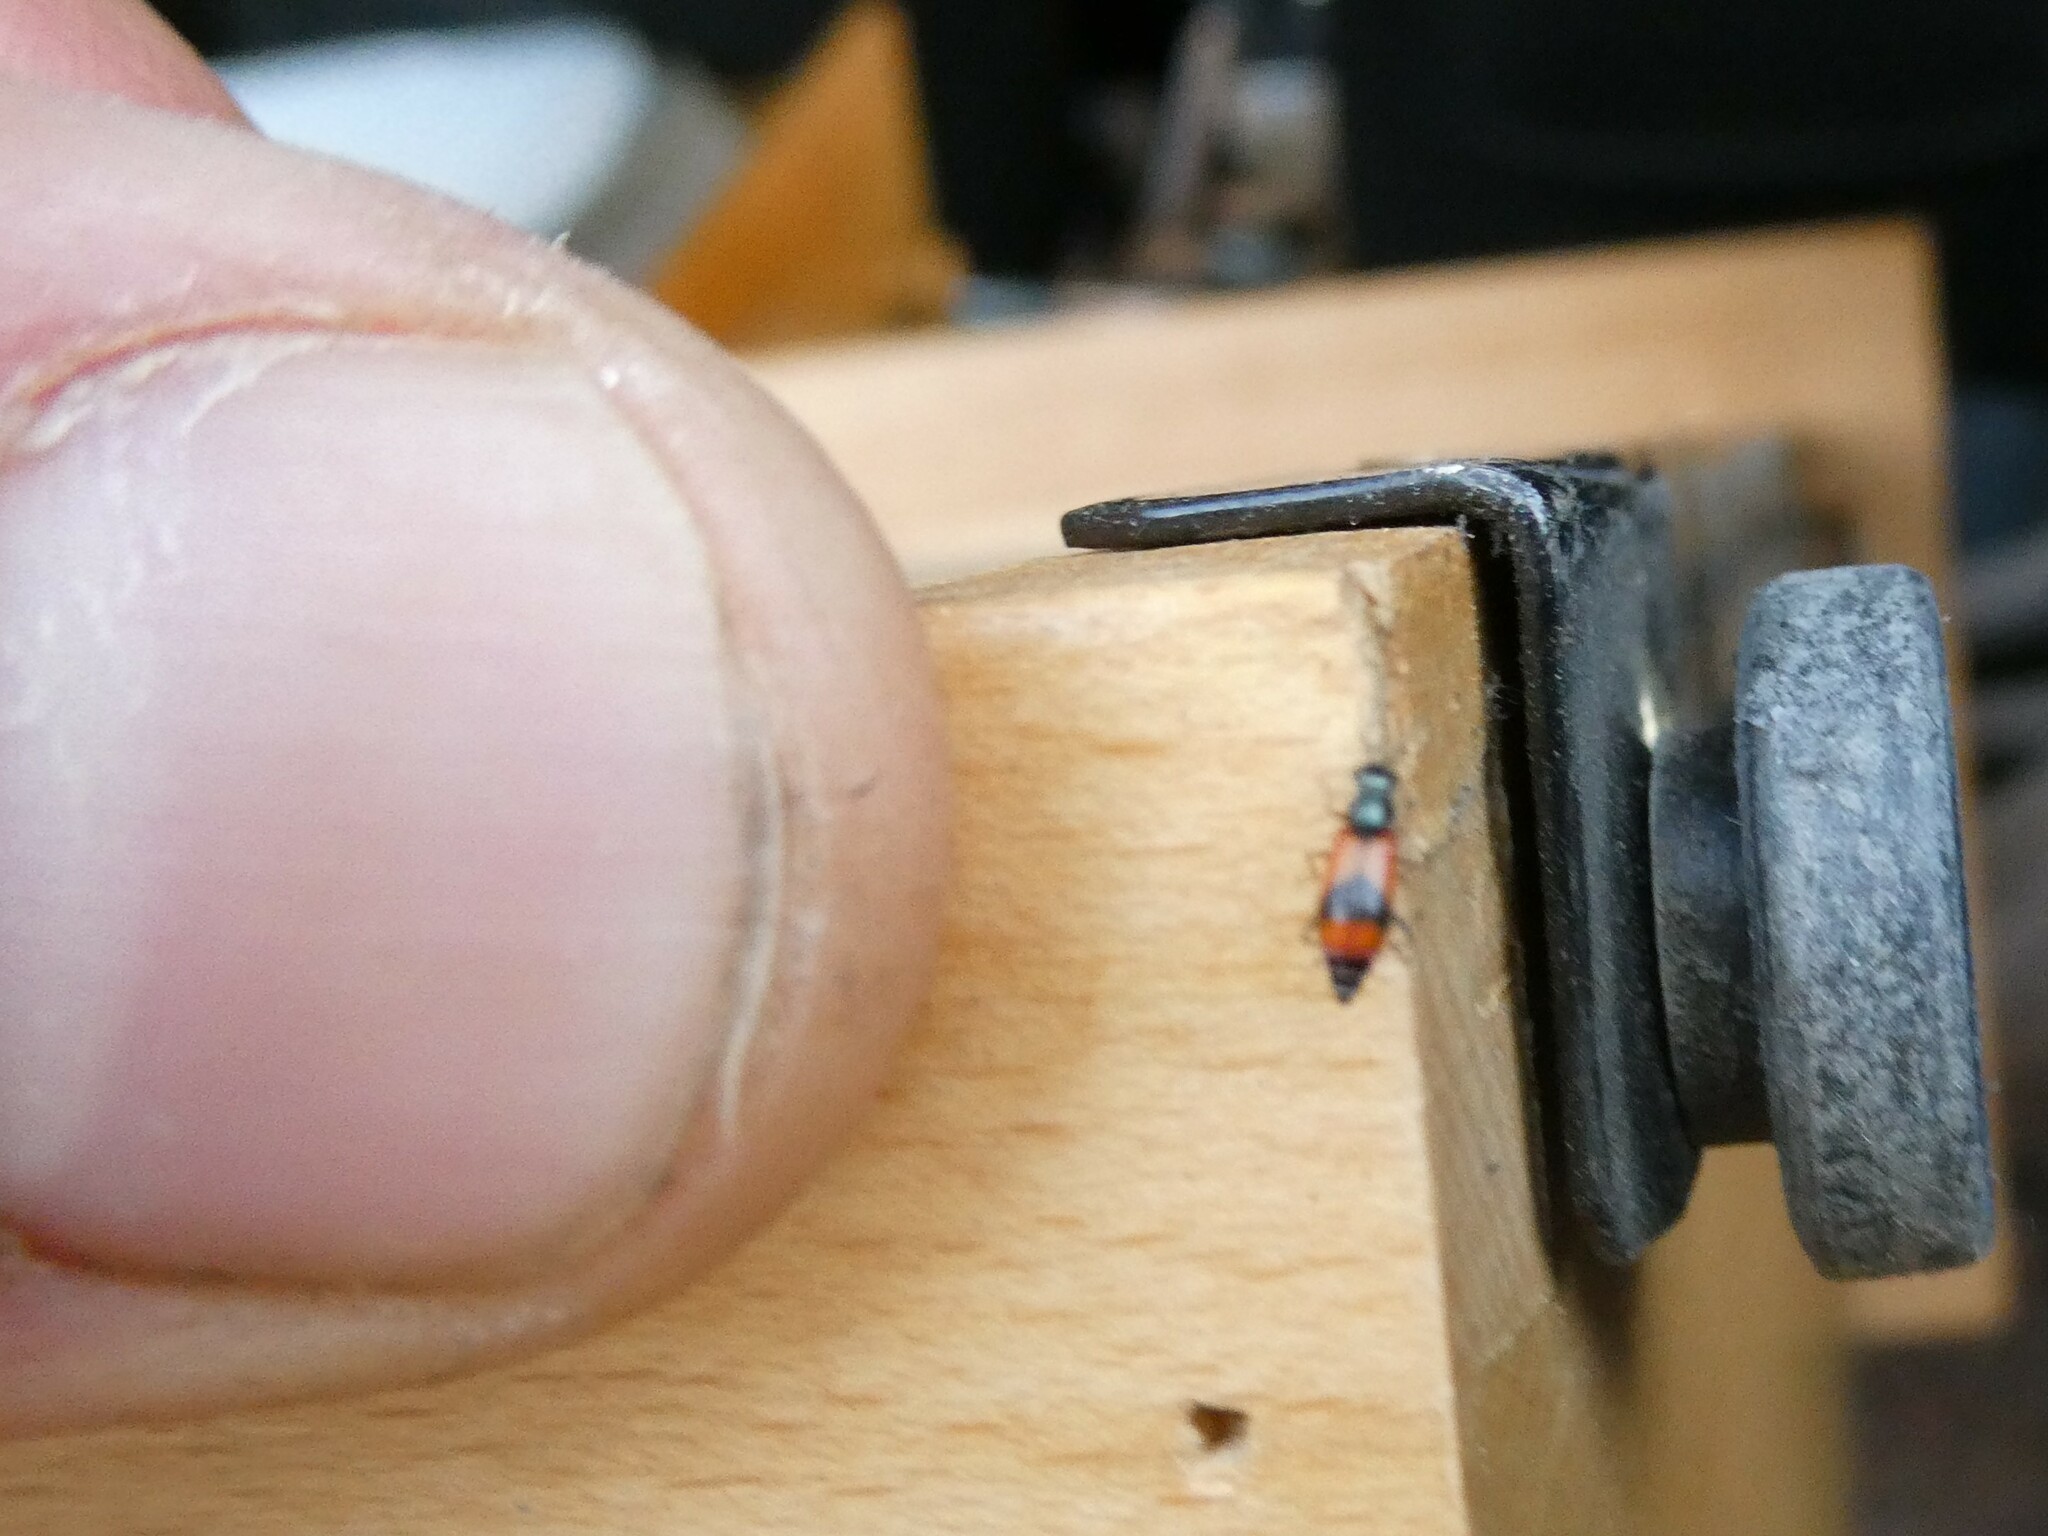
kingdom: Animalia
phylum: Arthropoda
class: Insecta
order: Coleoptera
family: Melyridae
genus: Anthocomus
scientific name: Anthocomus equestris
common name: Black-banded soft-winged flower beetle
